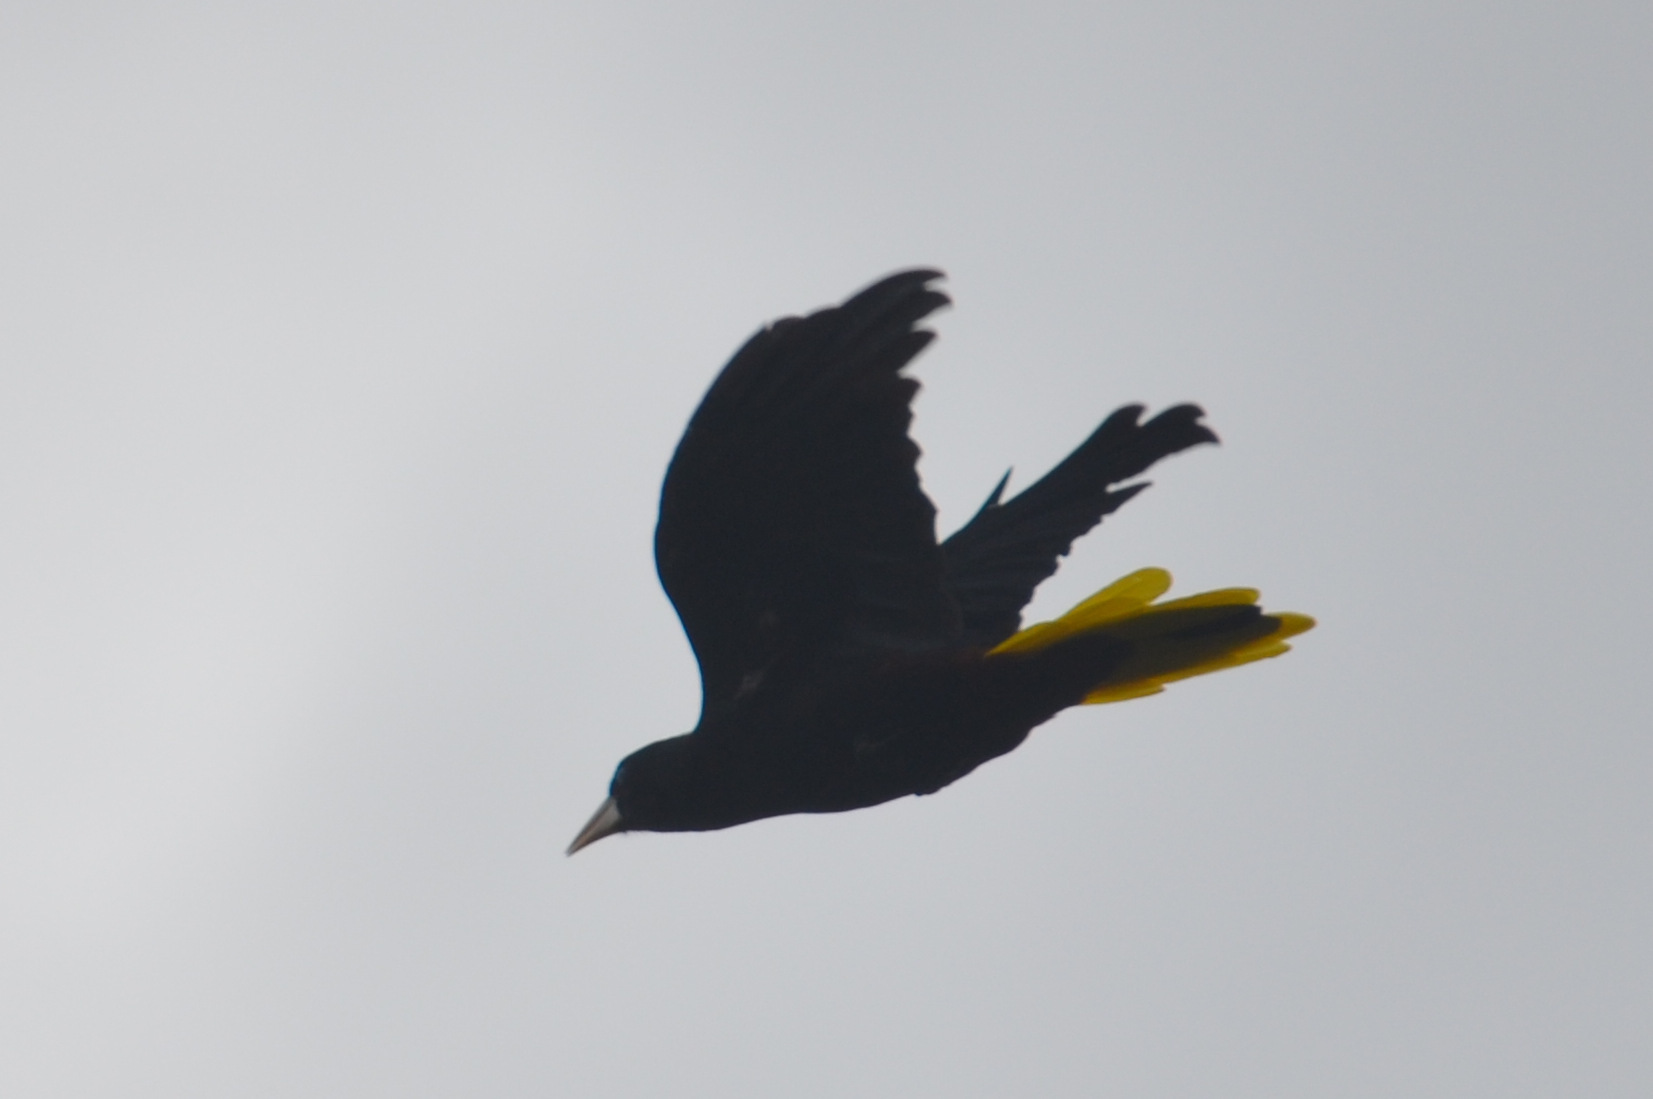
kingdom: Animalia
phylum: Chordata
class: Aves
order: Passeriformes
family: Icteridae
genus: Psarocolius
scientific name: Psarocolius decumanus
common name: Crested oropendola
